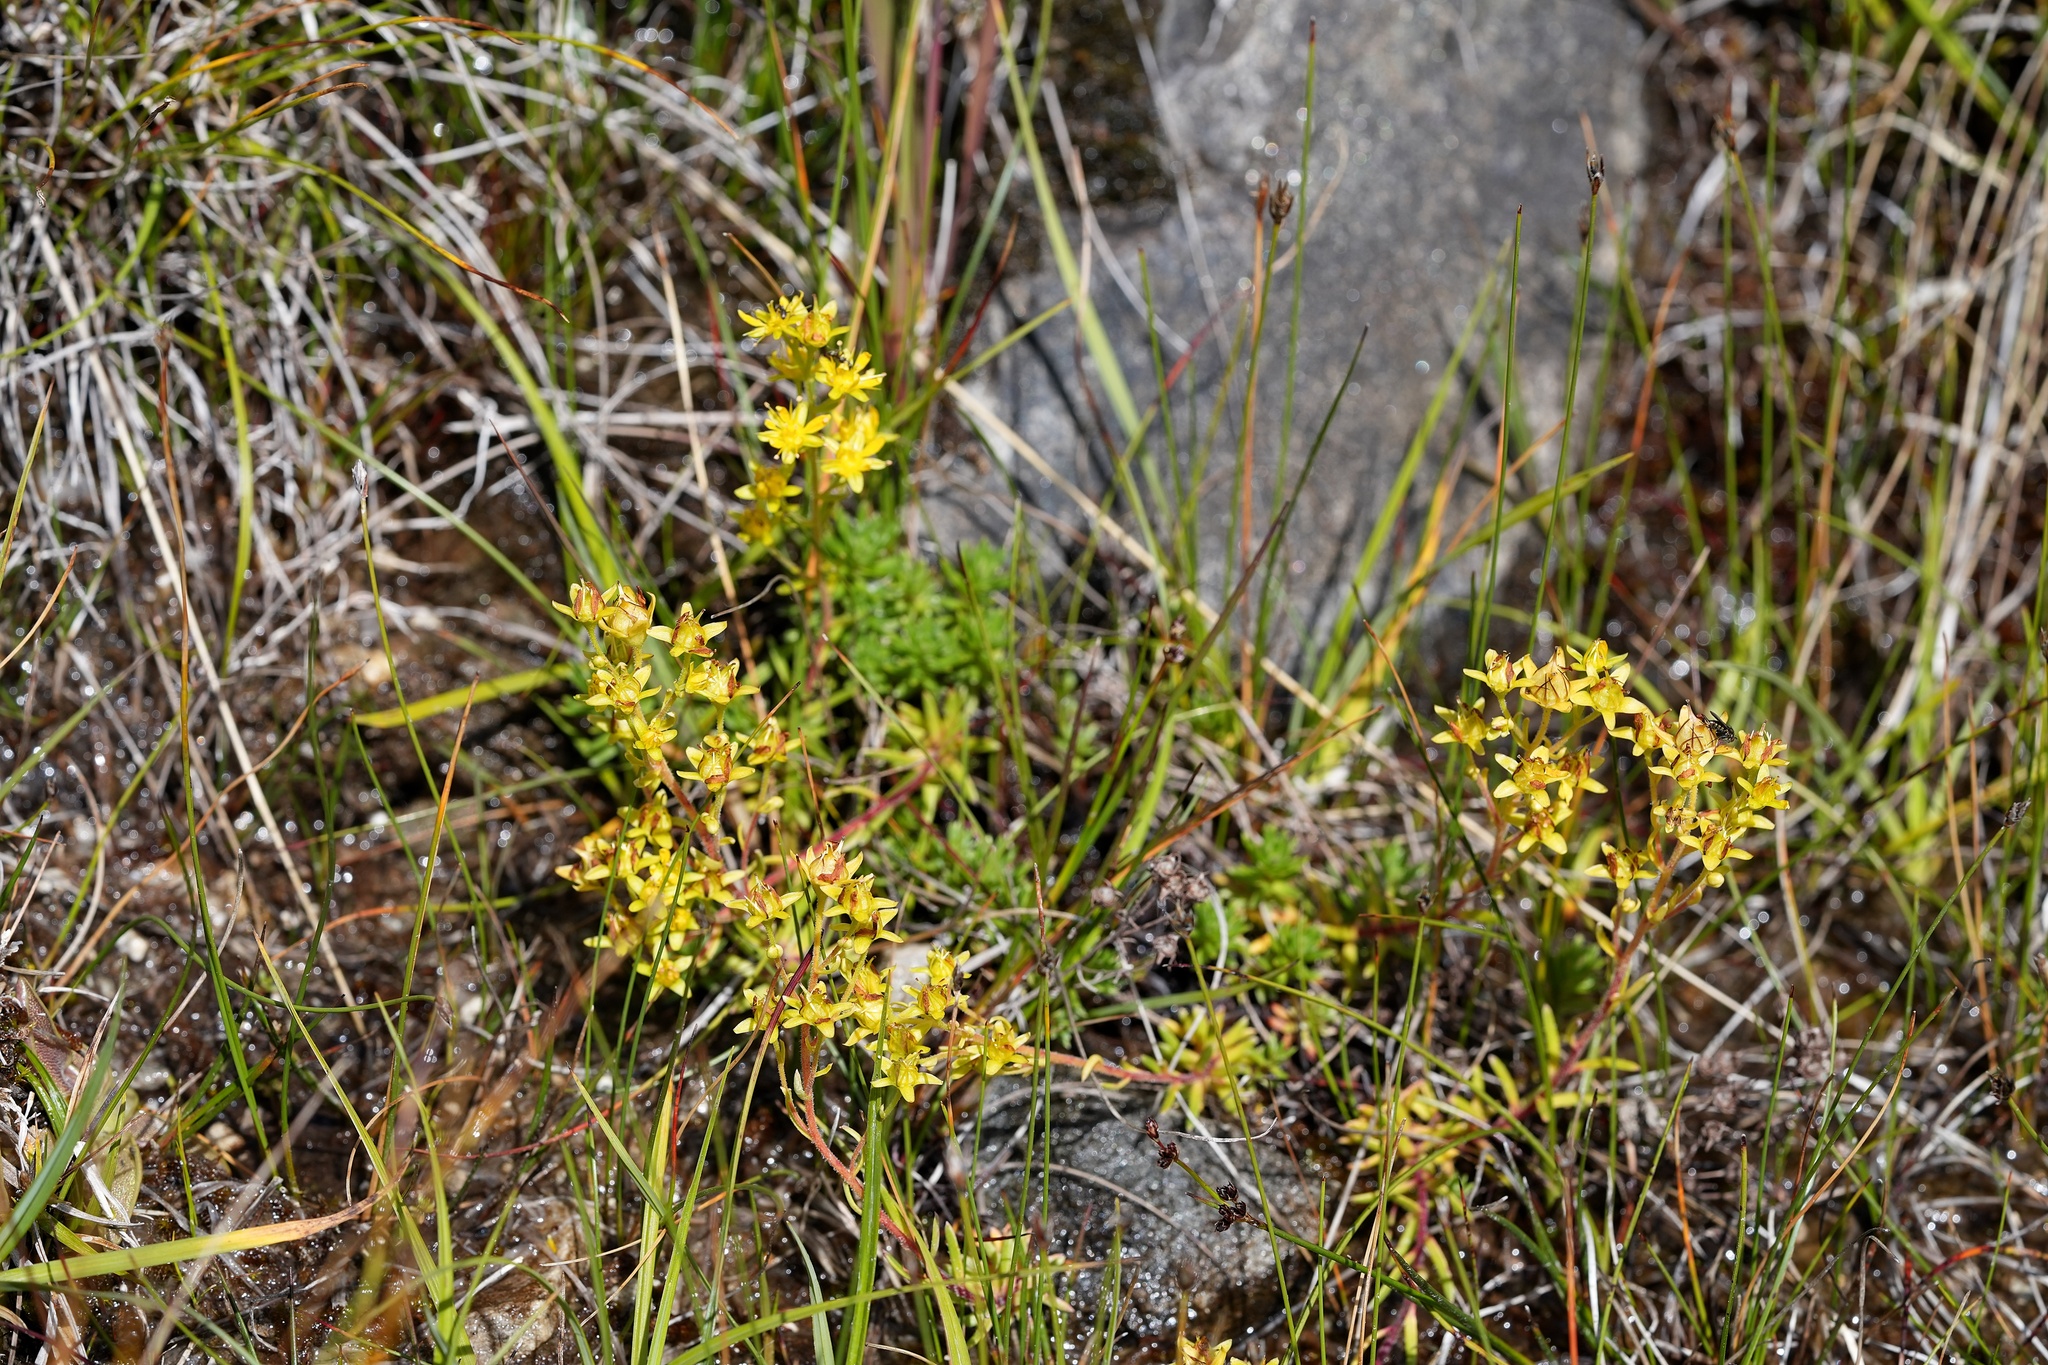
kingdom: Plantae
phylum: Tracheophyta
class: Magnoliopsida
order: Saxifragales
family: Saxifragaceae
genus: Saxifraga
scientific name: Saxifraga aizoides
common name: Yellow mountain saxifrage
